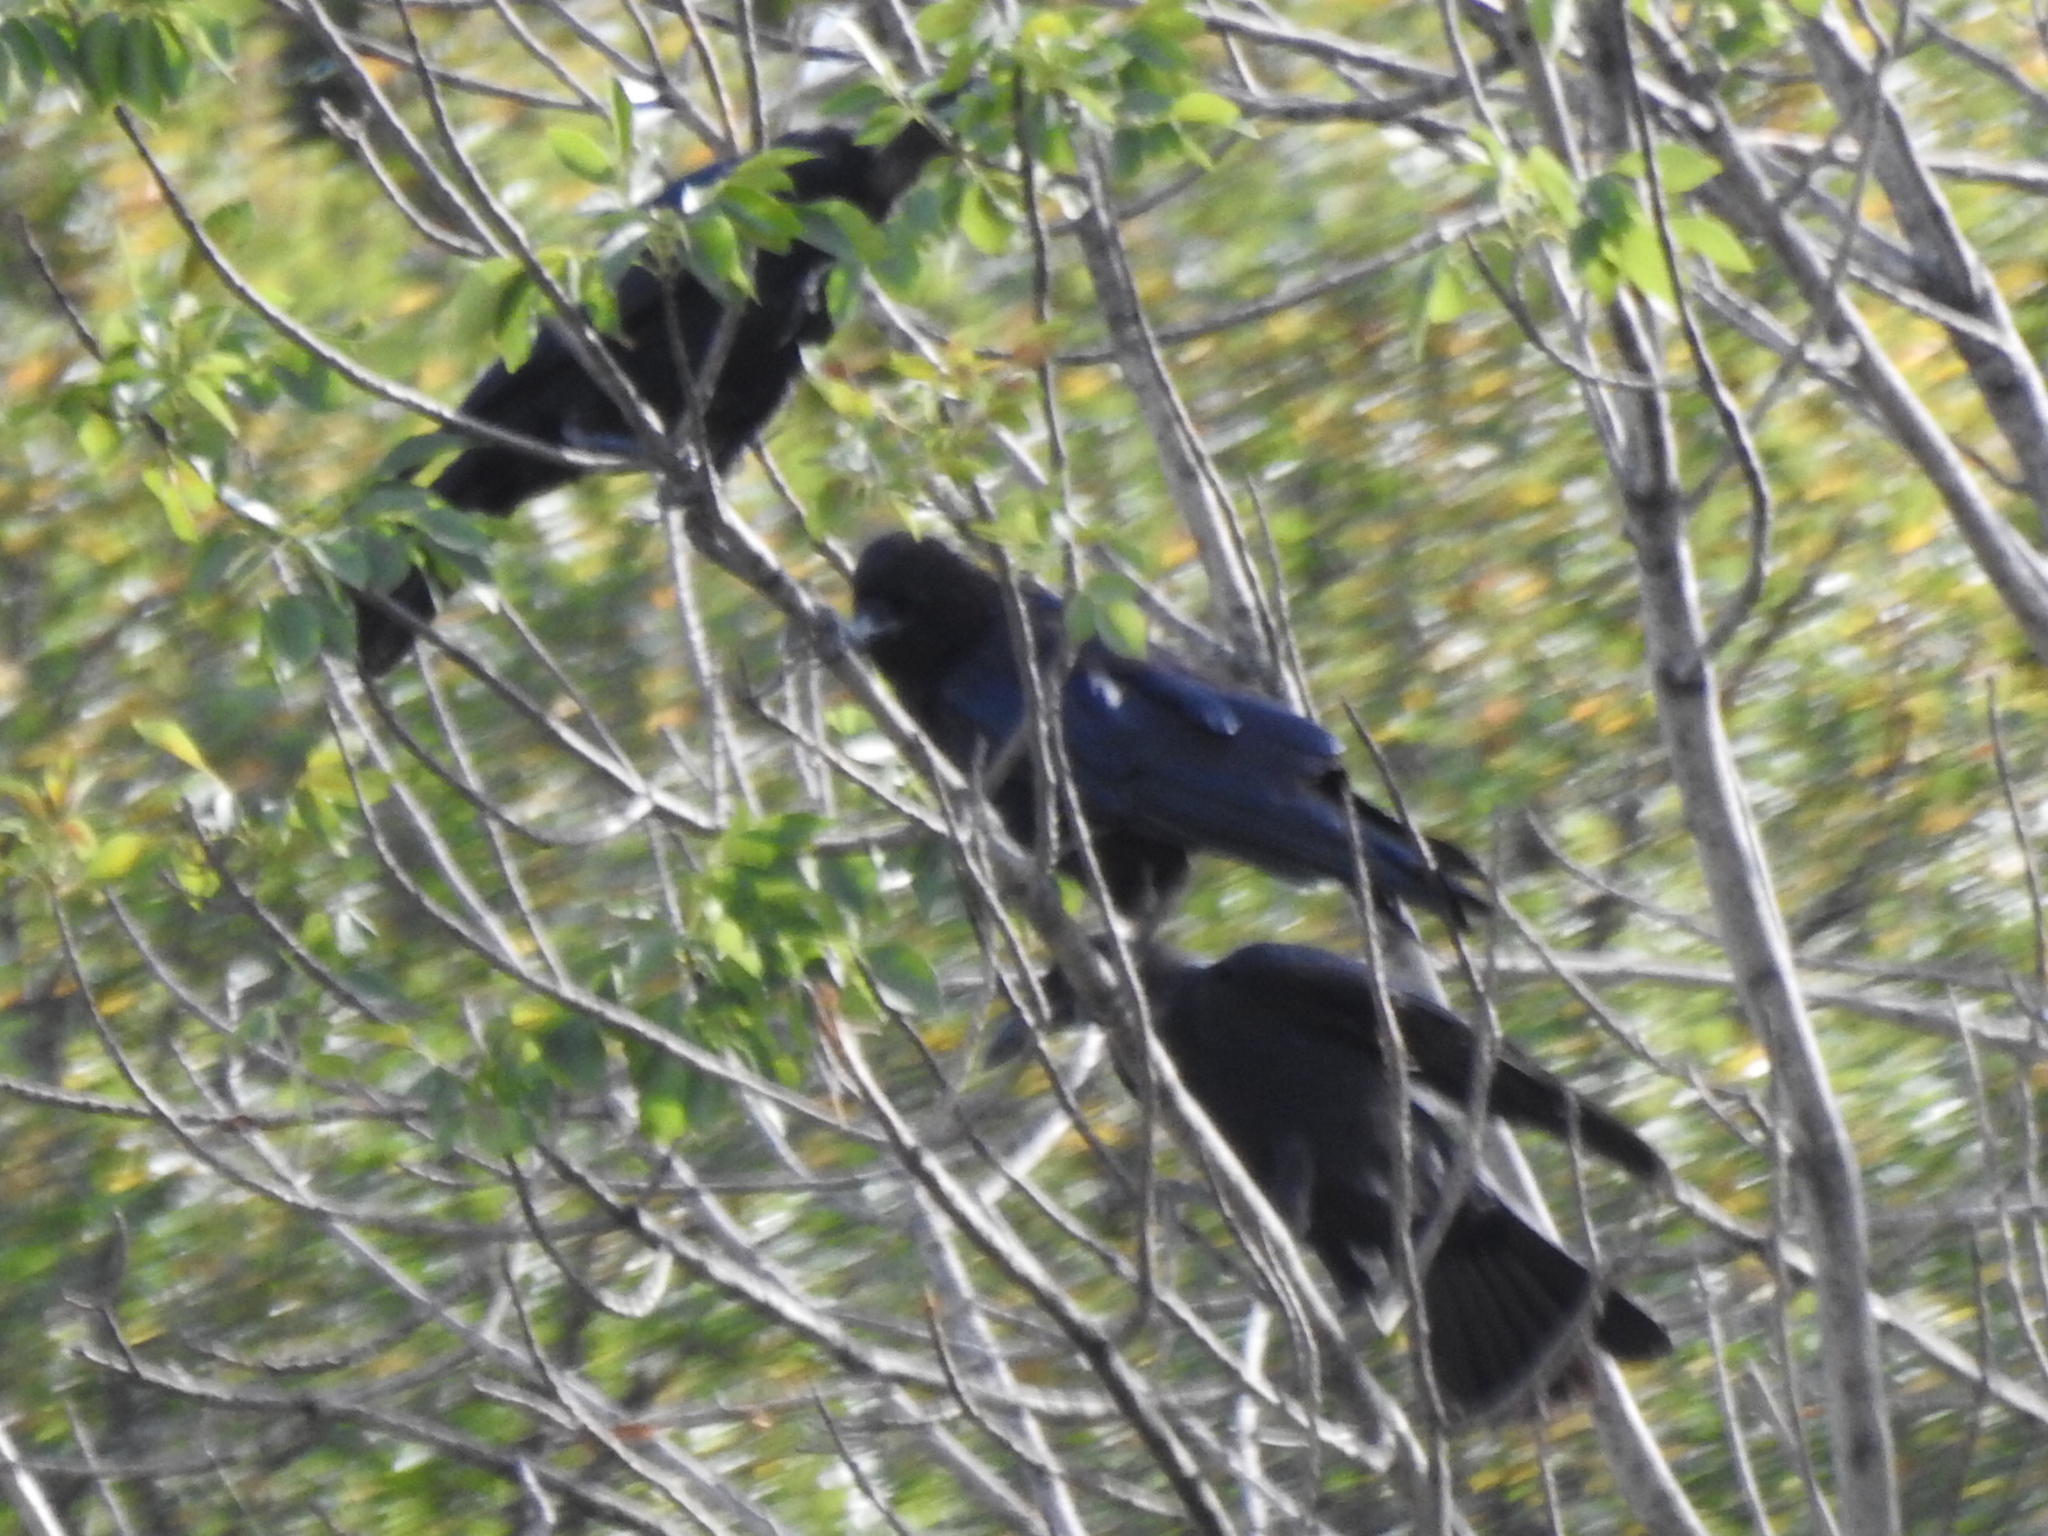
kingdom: Animalia
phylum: Chordata
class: Aves
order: Passeriformes
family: Corvidae
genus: Corvus
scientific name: Corvus brachyrhynchos
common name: American crow
